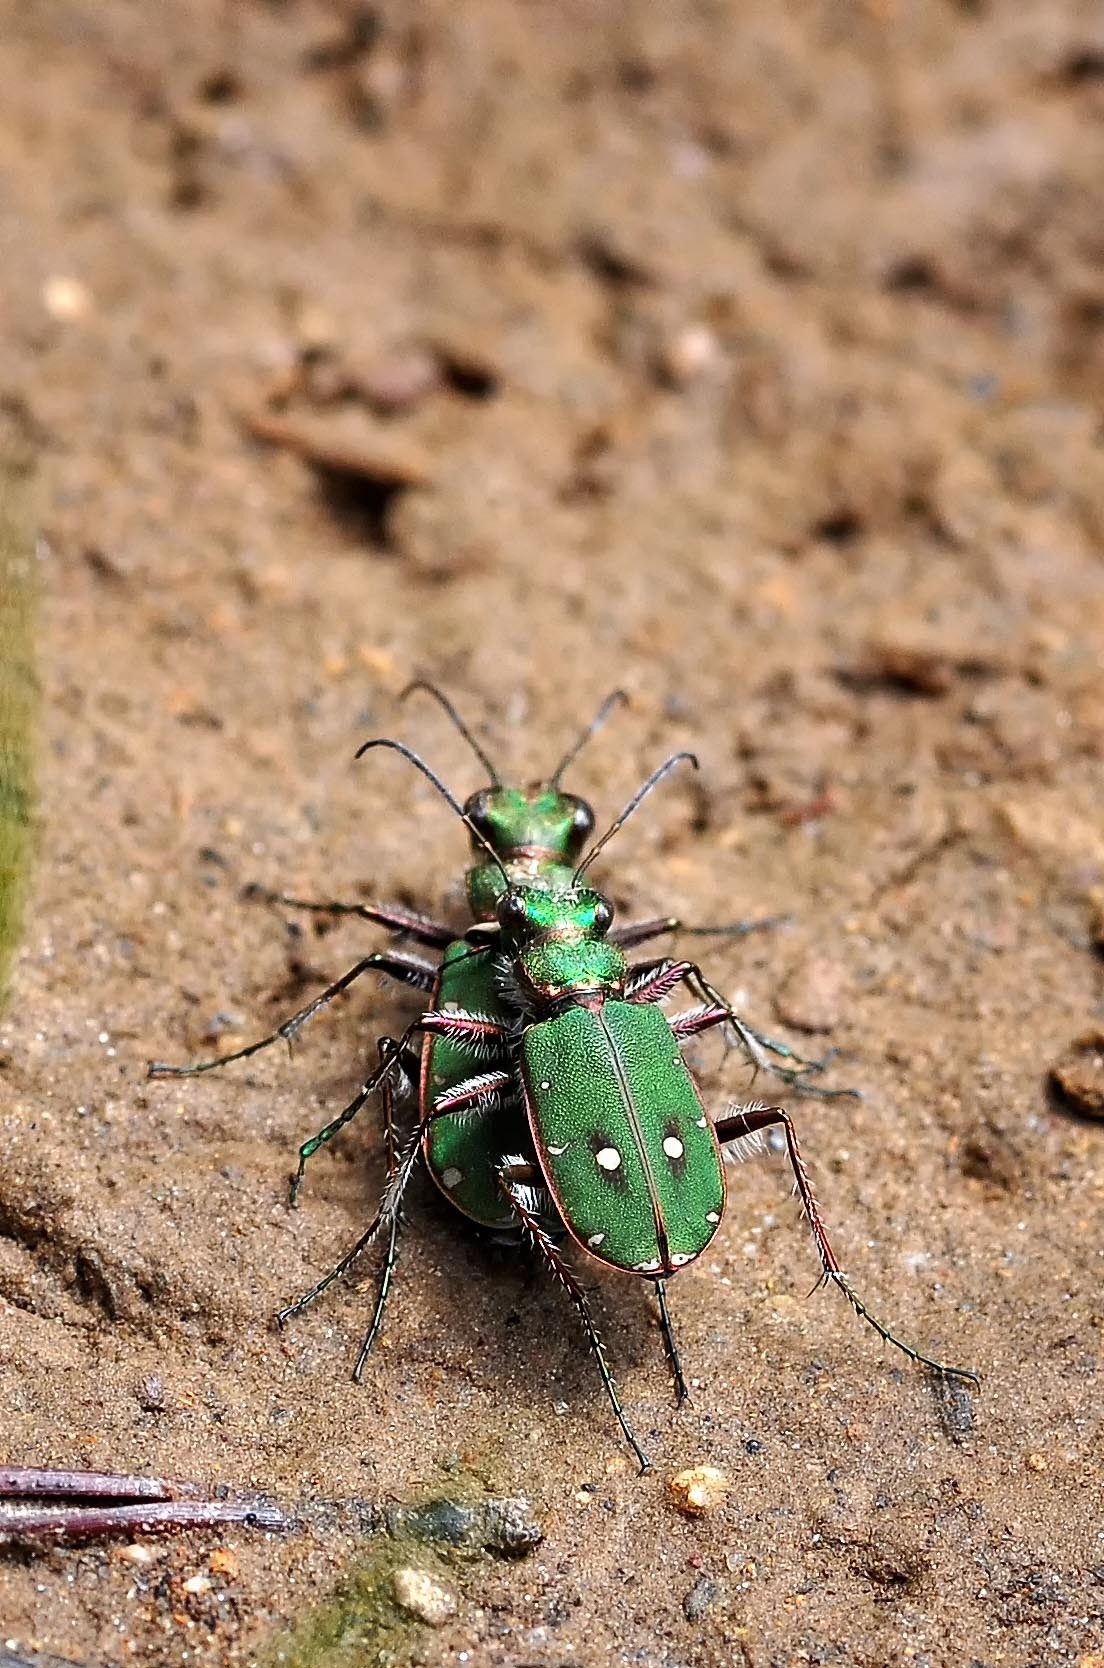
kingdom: Animalia
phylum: Arthropoda
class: Insecta
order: Coleoptera
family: Carabidae
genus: Cicindela
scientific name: Cicindela campestris
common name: Common tiger beetle
